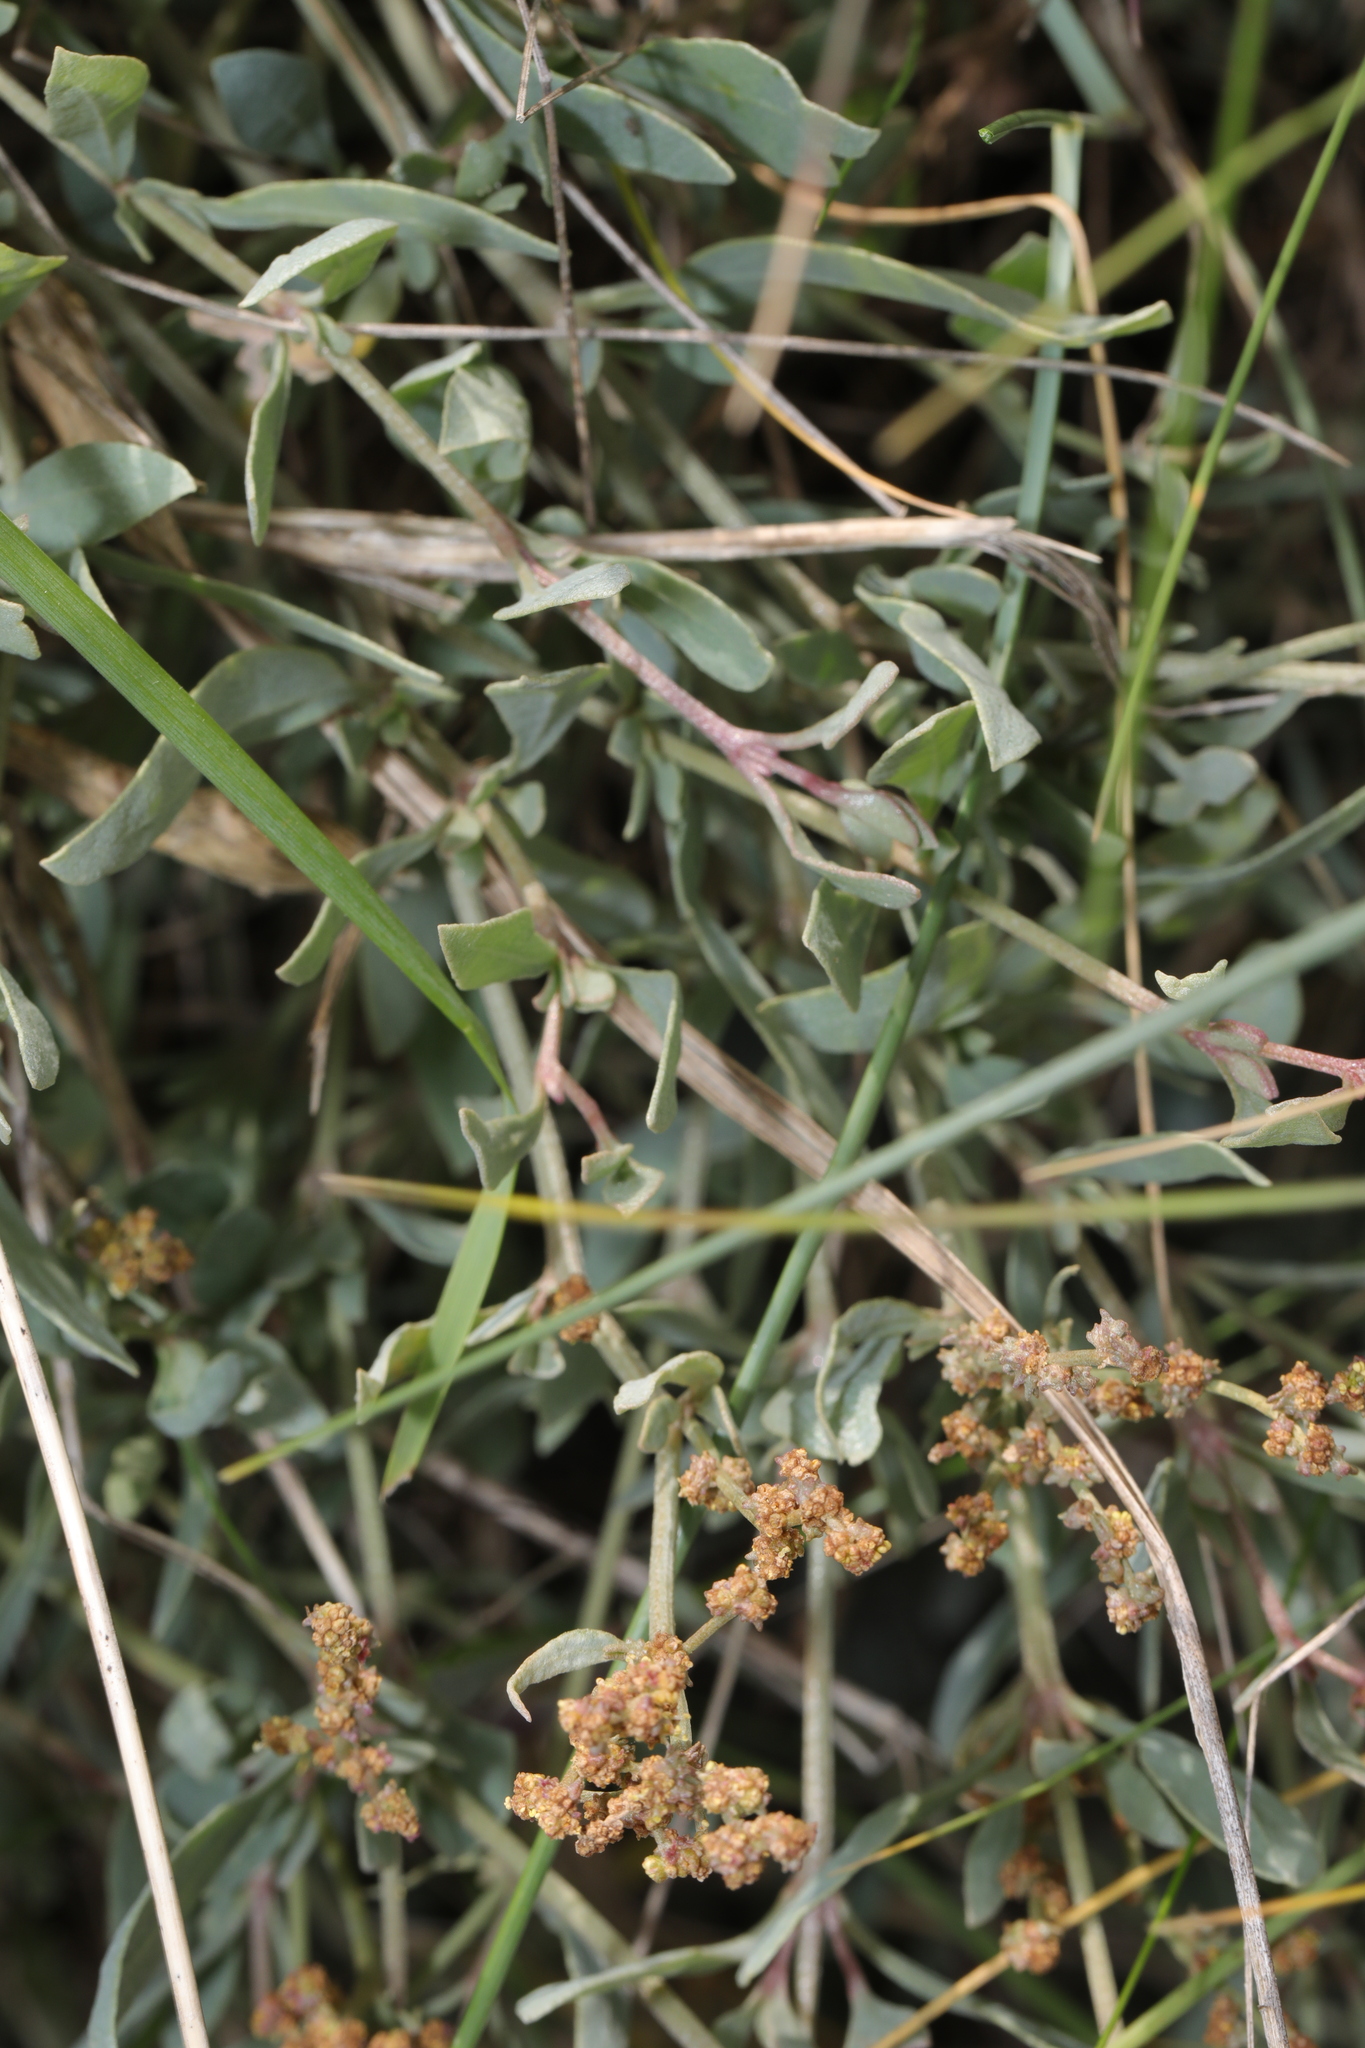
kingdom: Plantae
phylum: Tracheophyta
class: Magnoliopsida
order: Caryophyllales
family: Amaranthaceae
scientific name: Amaranthaceae
